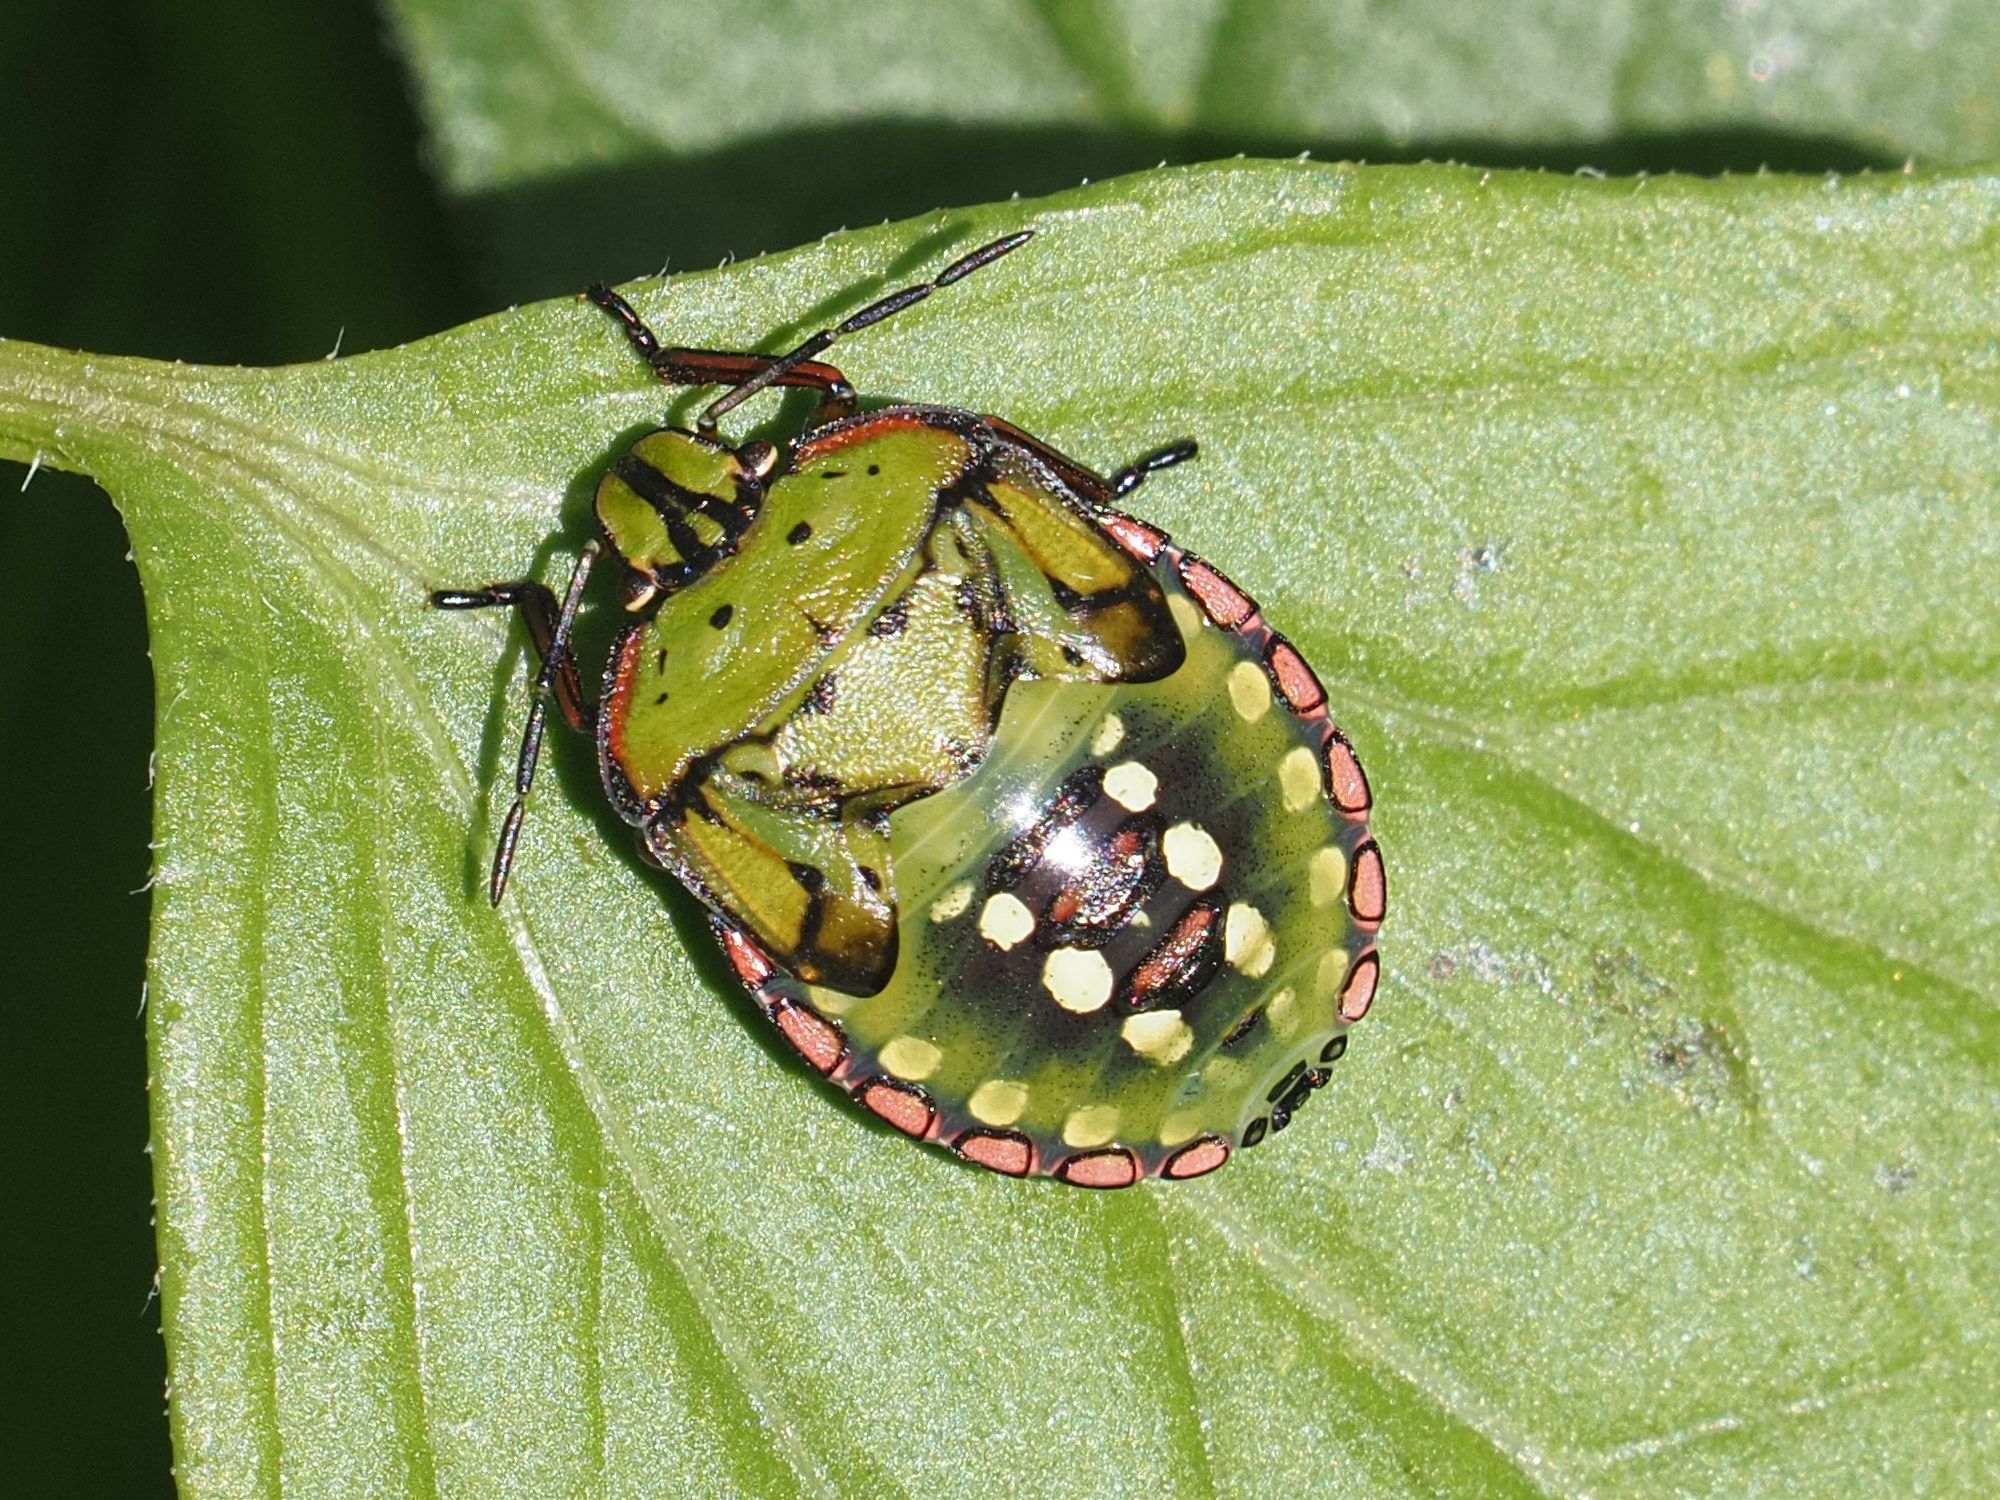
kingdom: Animalia
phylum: Arthropoda
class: Insecta
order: Hemiptera
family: Pentatomidae
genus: Nezara
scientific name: Nezara viridula
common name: Southern green stink bug
